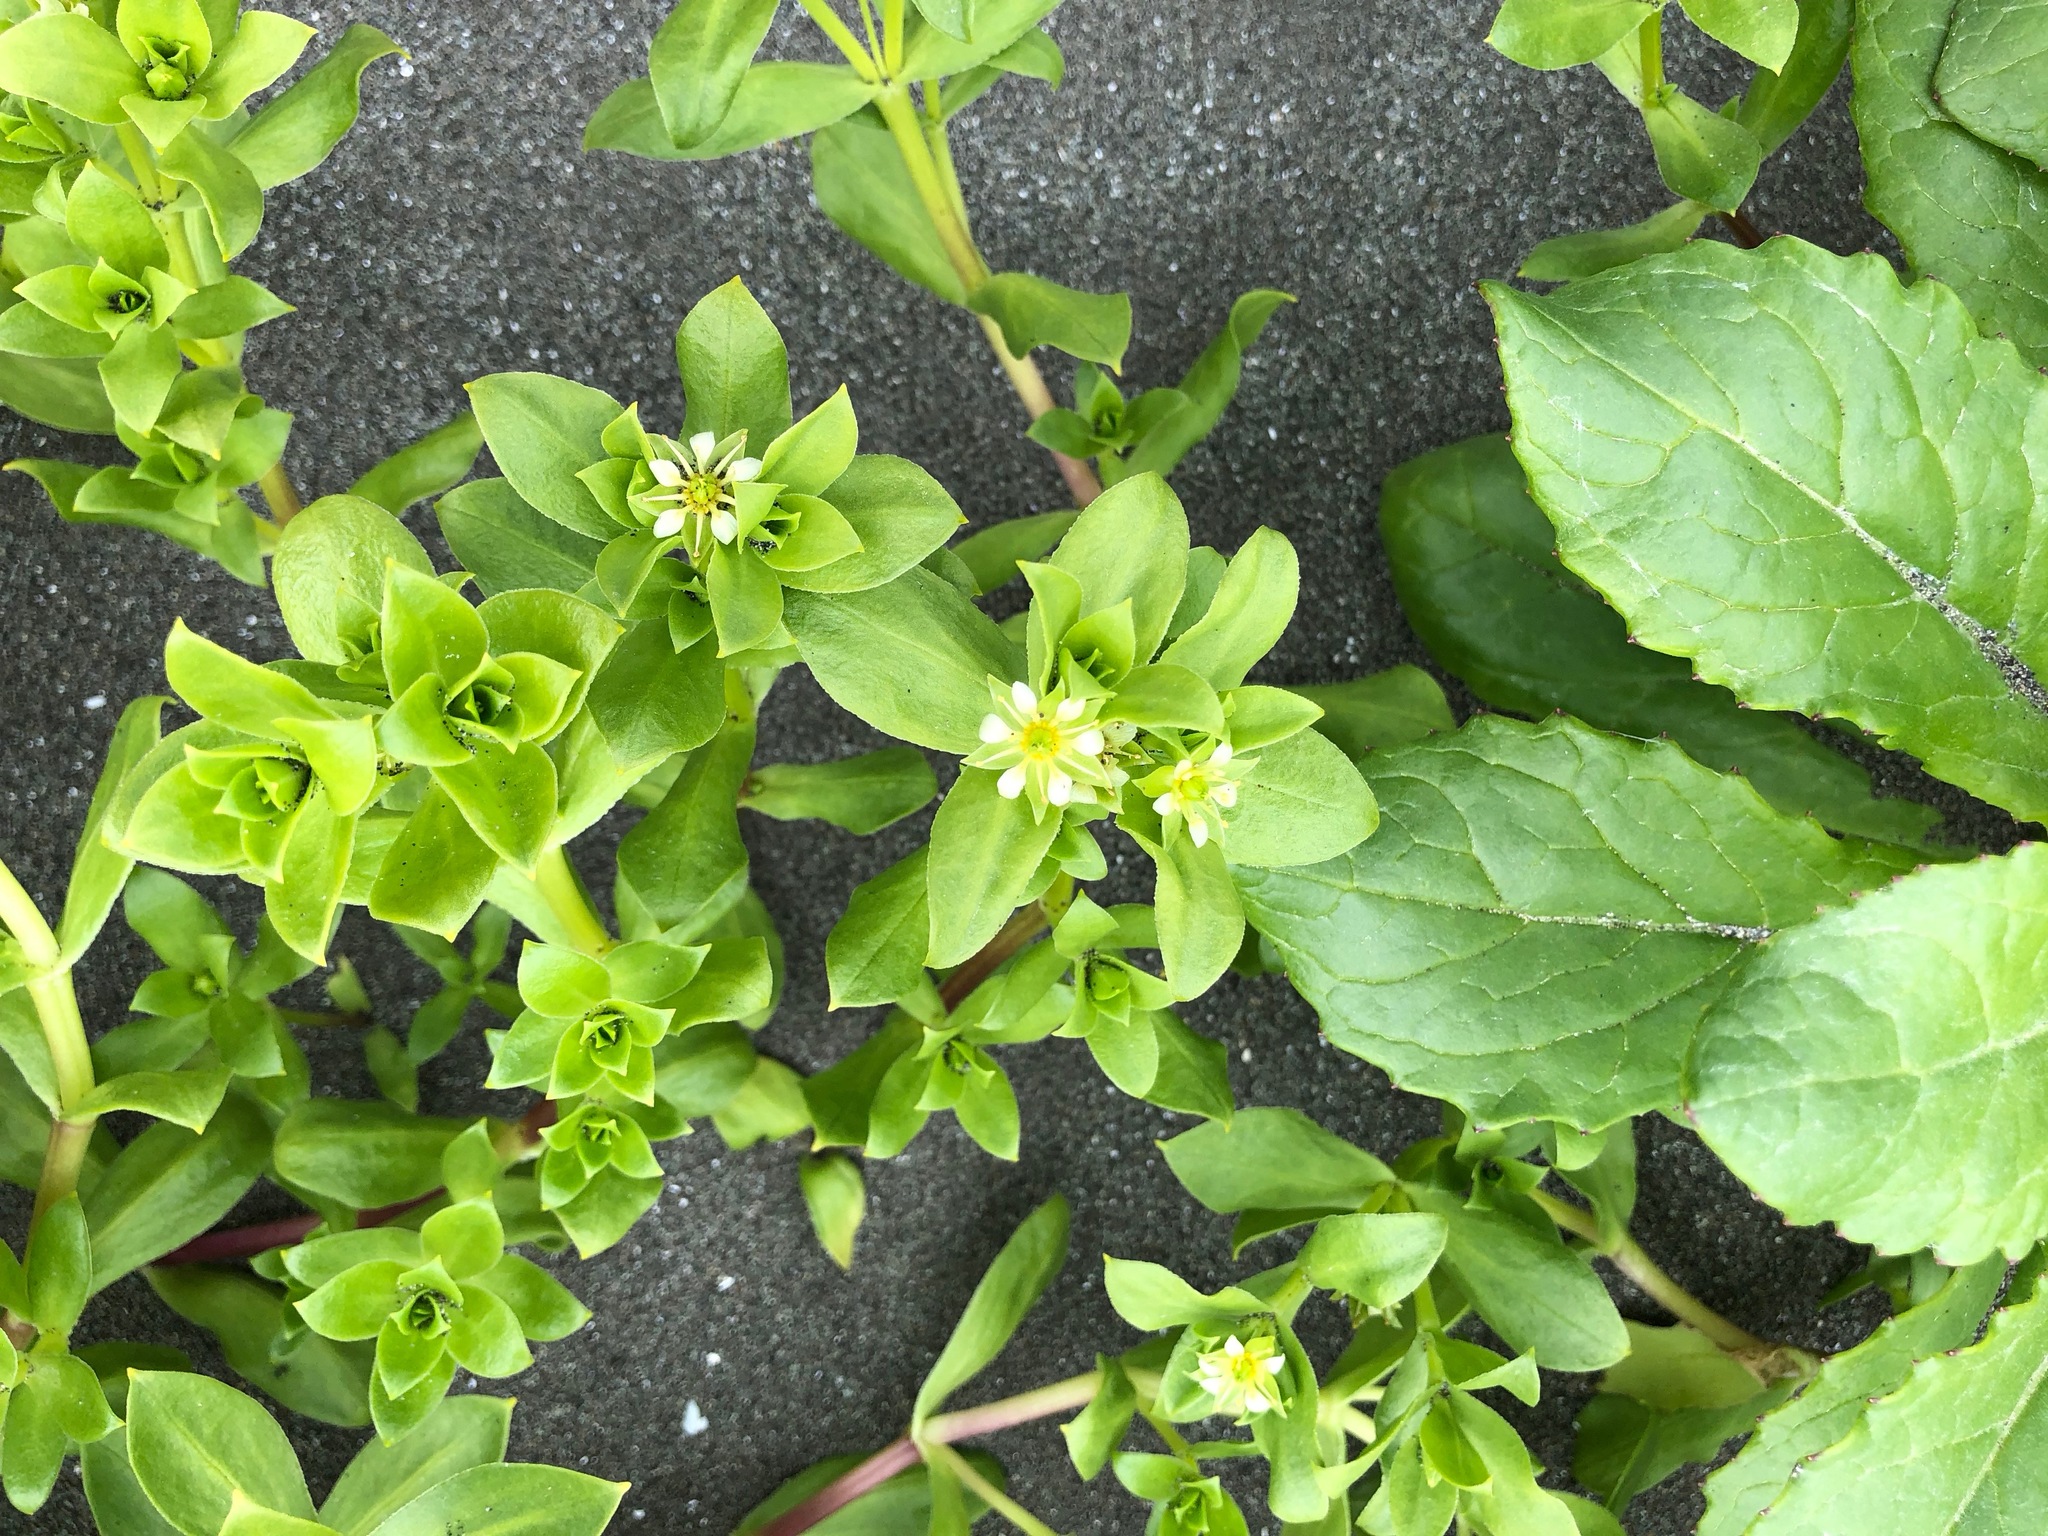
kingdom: Plantae
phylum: Tracheophyta
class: Magnoliopsida
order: Caryophyllales
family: Caryophyllaceae
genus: Honckenya
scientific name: Honckenya peploides
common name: Sea sandwort
